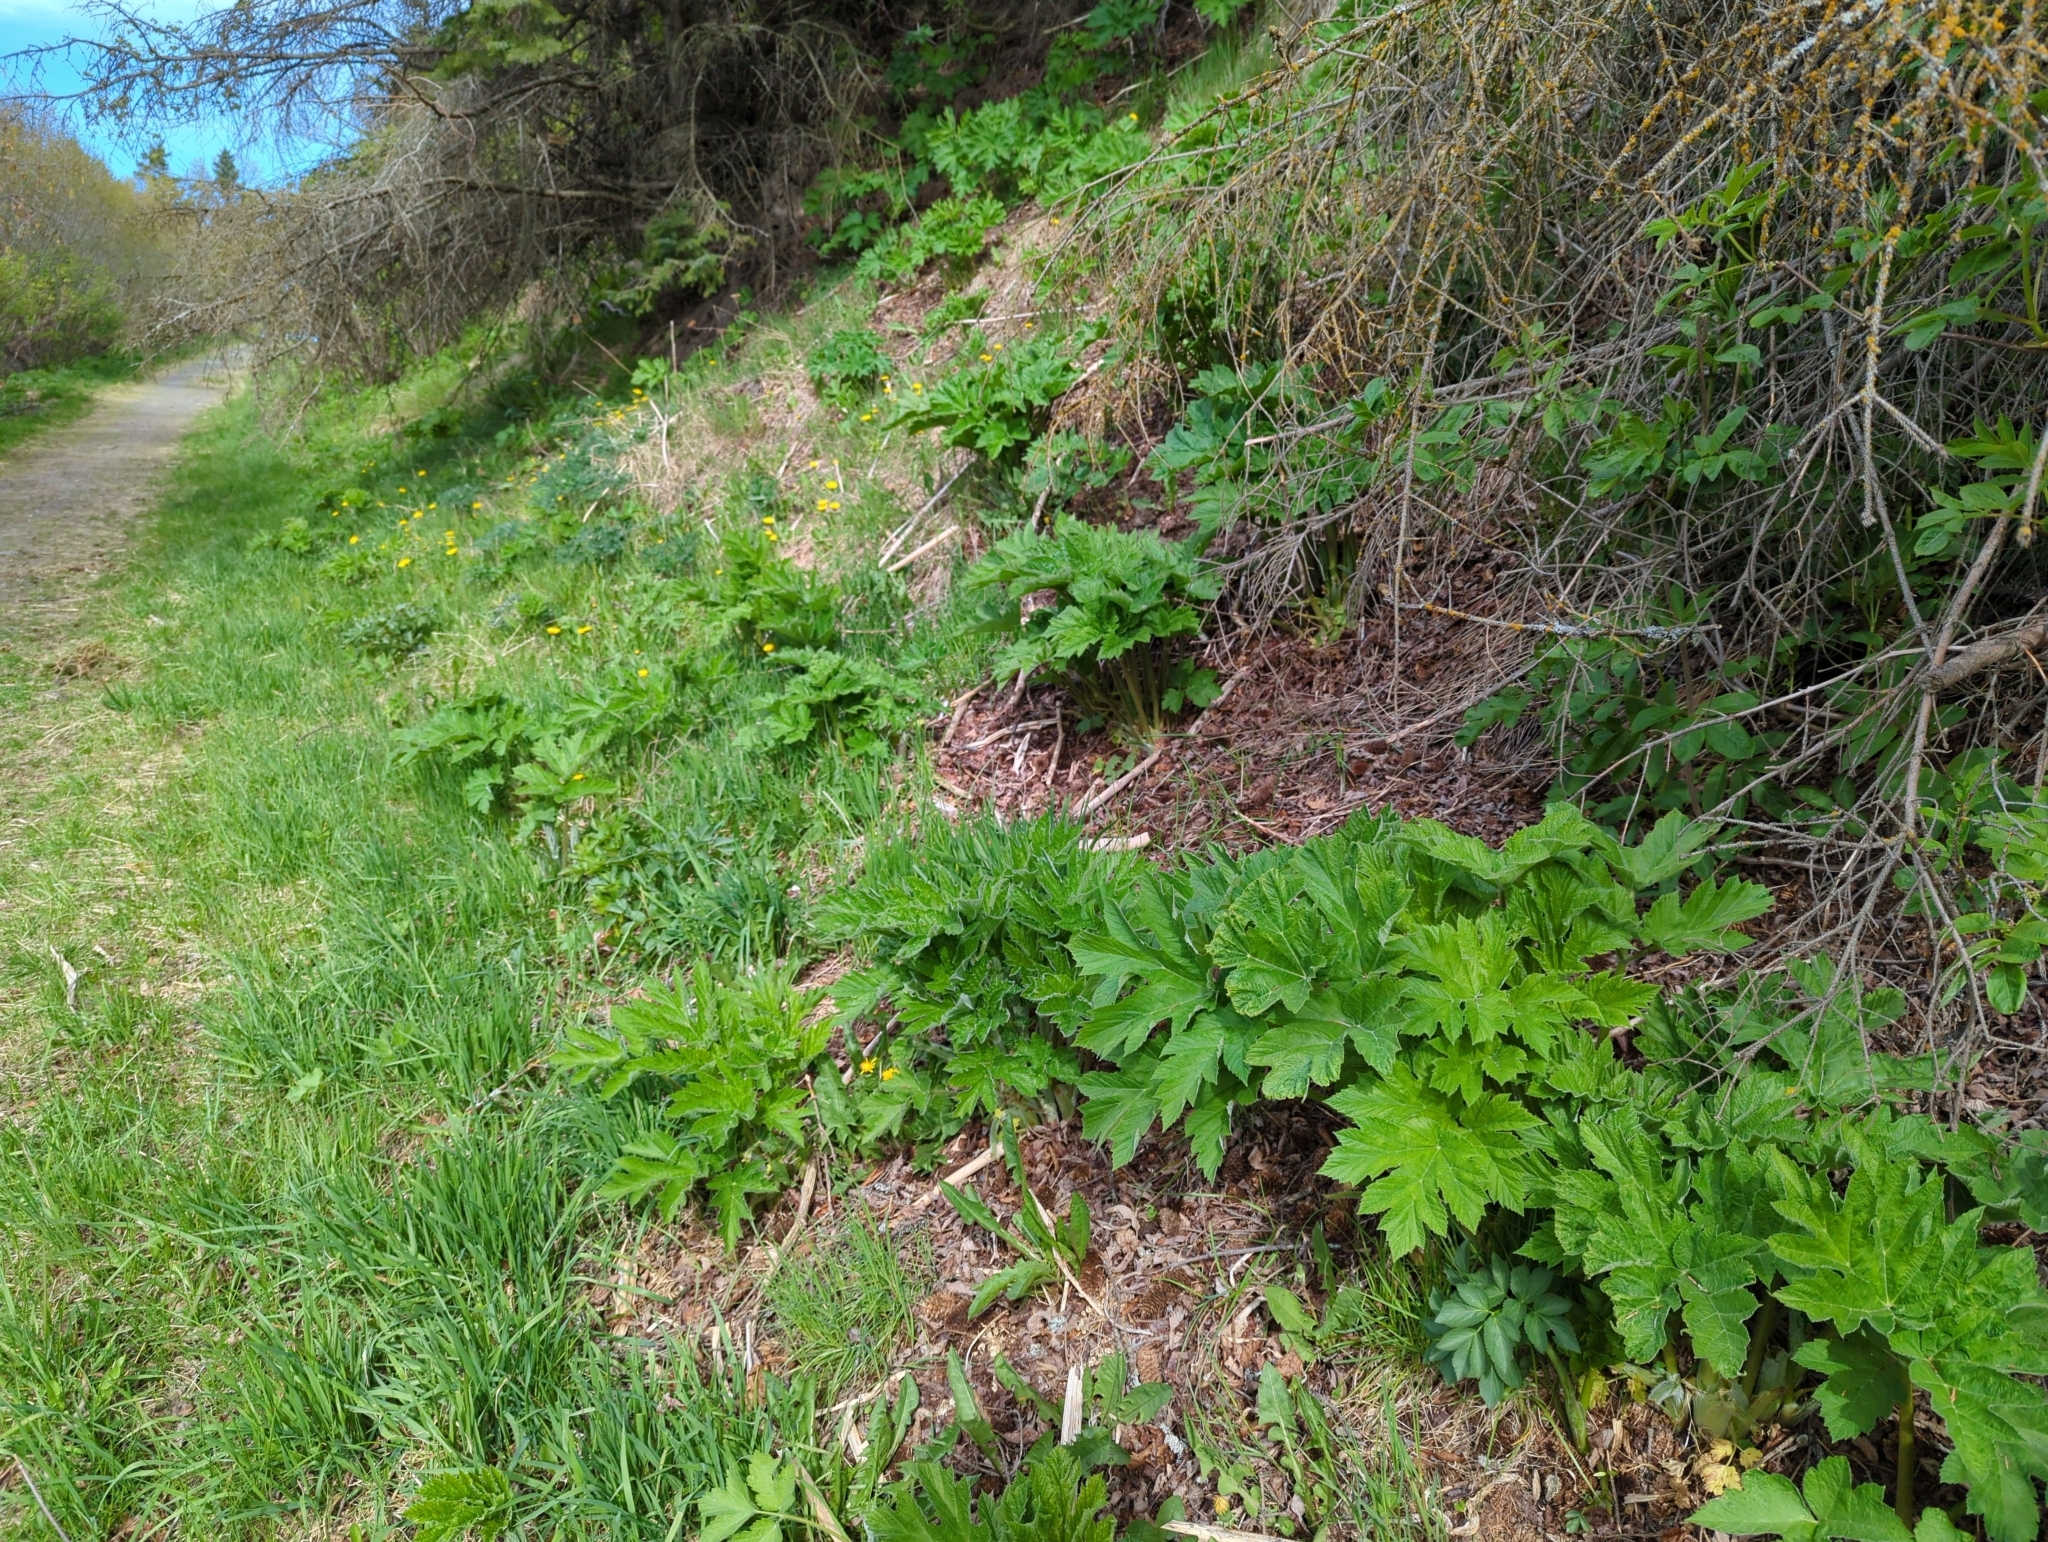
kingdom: Plantae
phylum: Tracheophyta
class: Magnoliopsida
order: Apiales
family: Apiaceae
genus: Heracleum
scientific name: Heracleum maximum
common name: American cow parsnip
